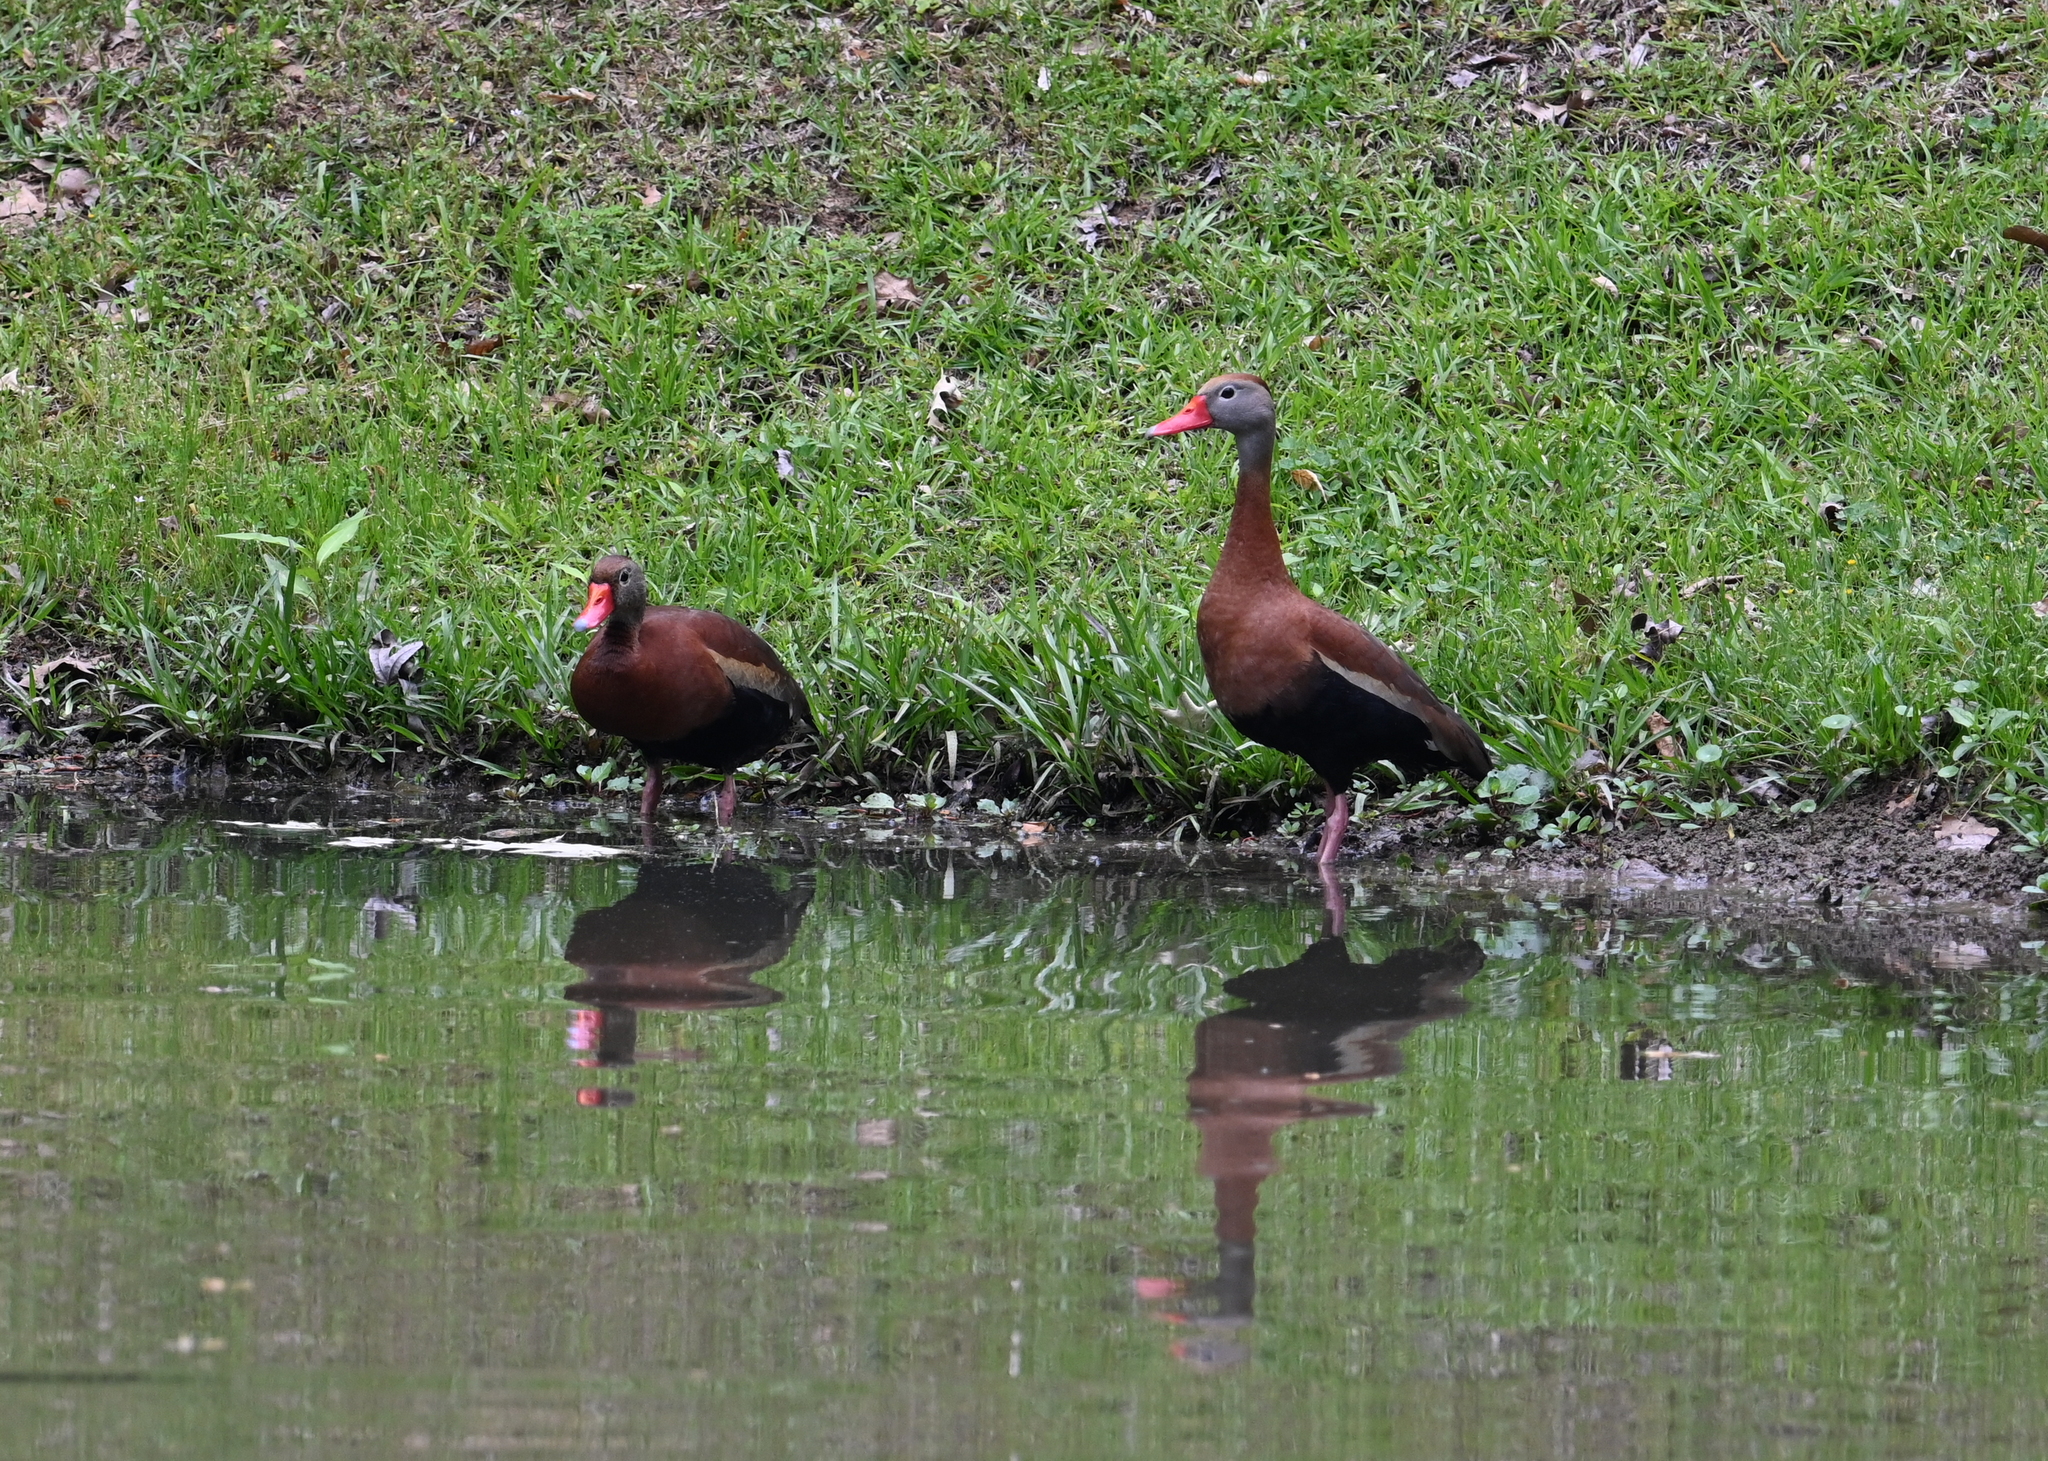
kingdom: Animalia
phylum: Chordata
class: Aves
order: Anseriformes
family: Anatidae
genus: Dendrocygna
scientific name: Dendrocygna autumnalis
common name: Black-bellied whistling duck
